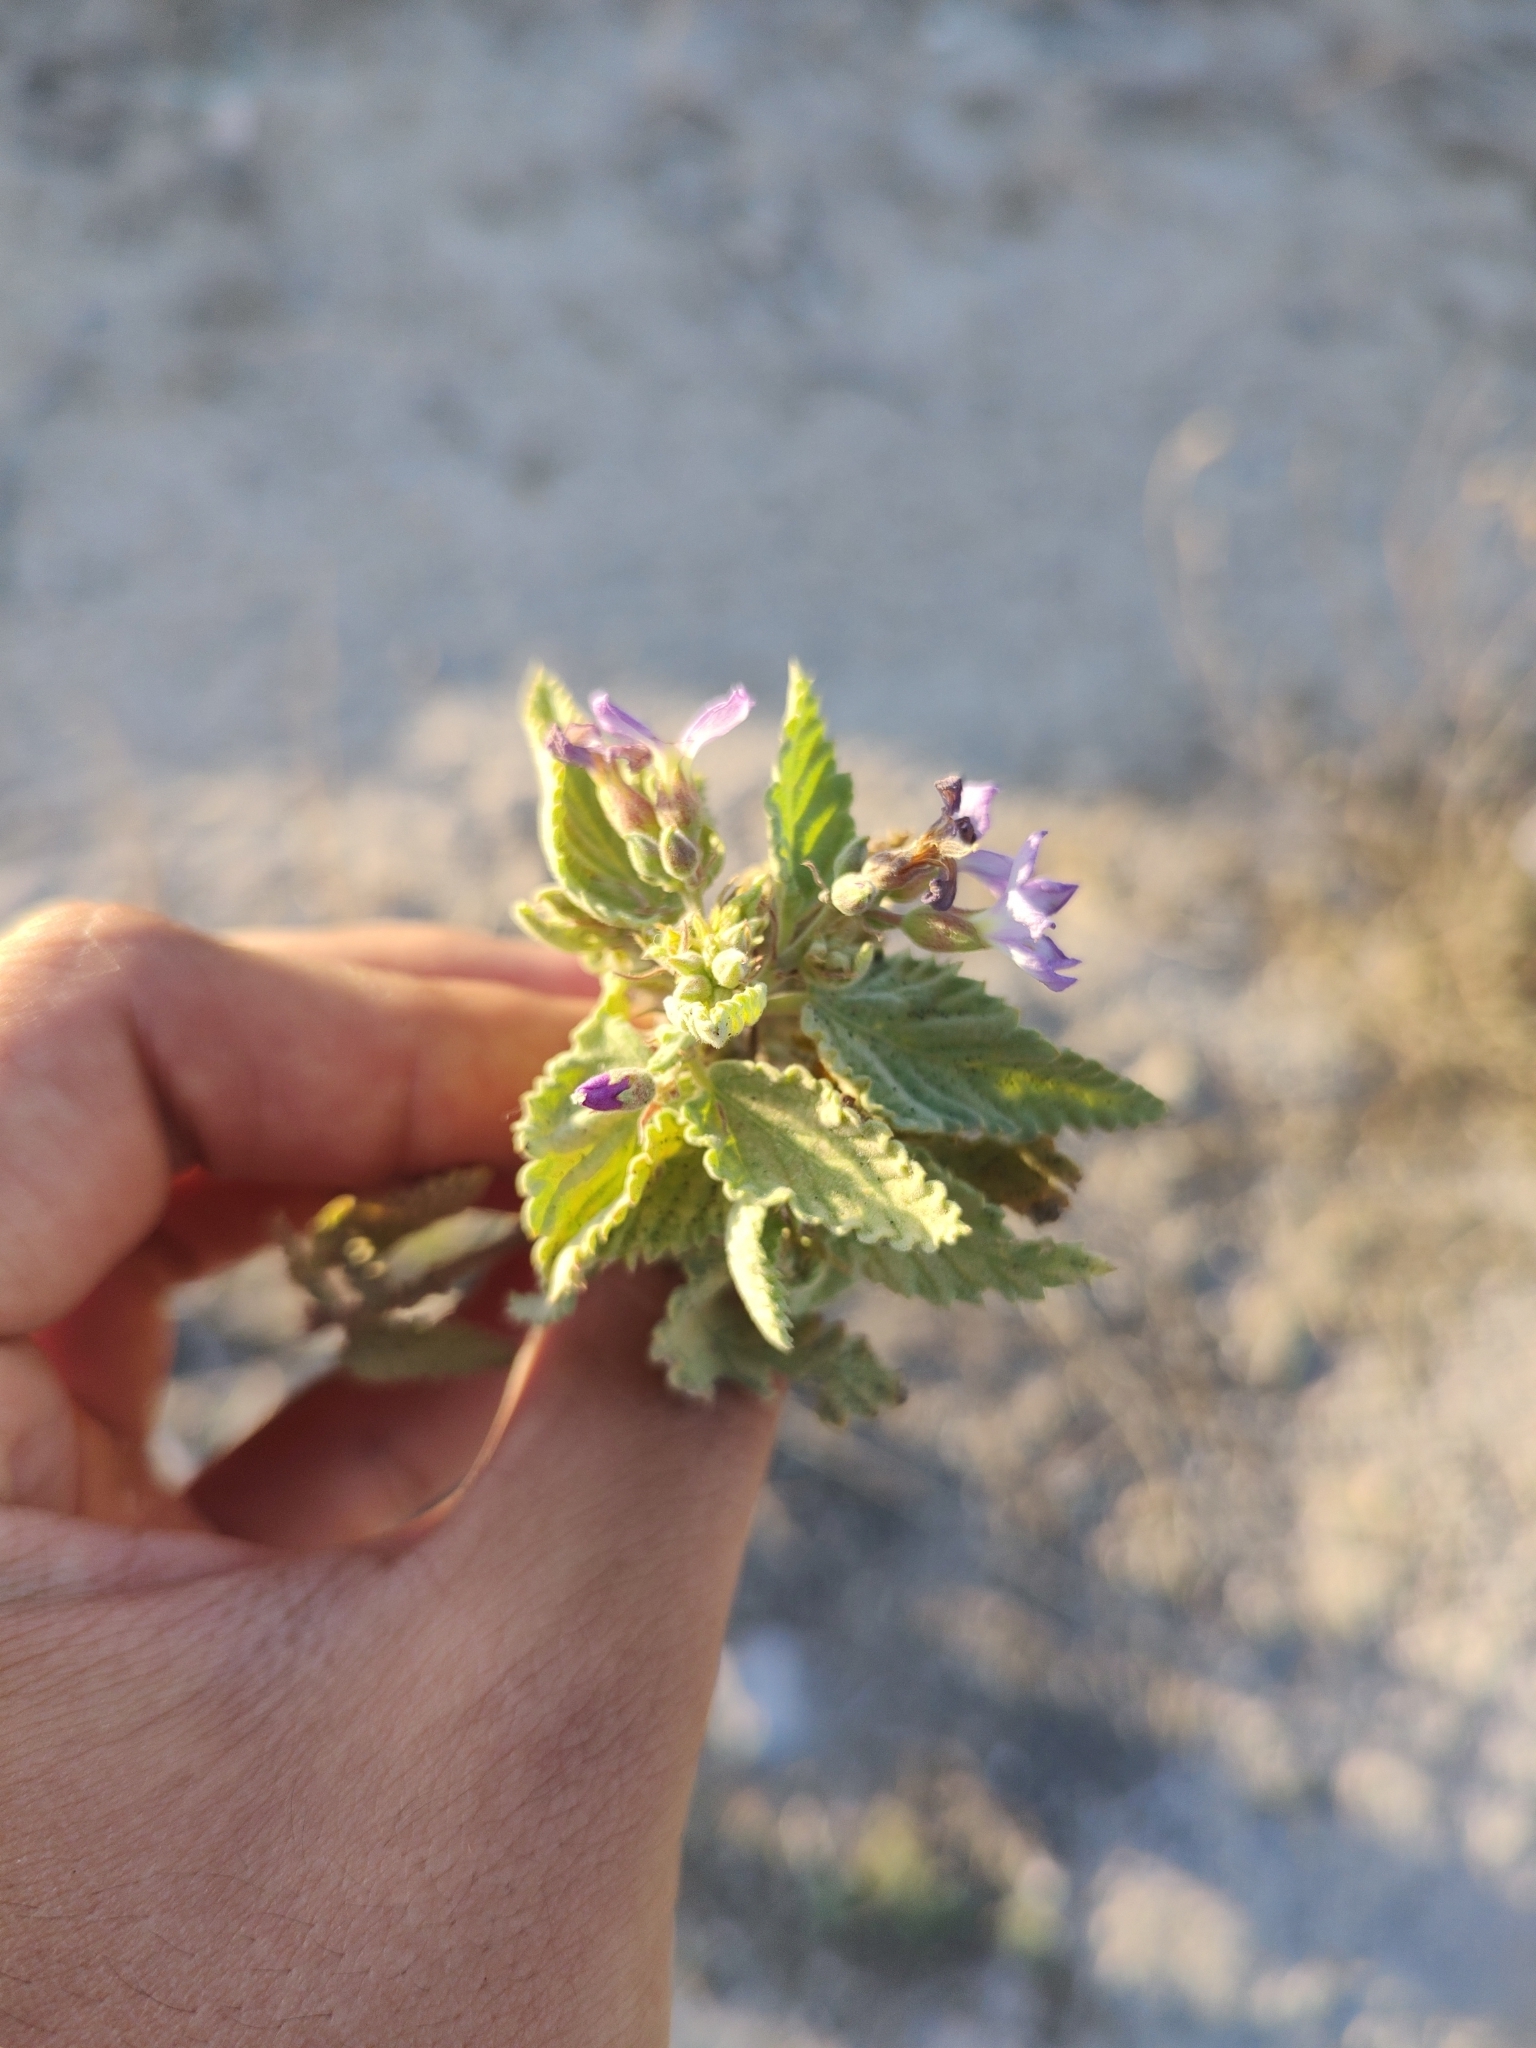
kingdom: Plantae
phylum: Tracheophyta
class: Magnoliopsida
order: Malvales
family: Malvaceae
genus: Melochia
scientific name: Melochia tomentosa
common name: Black torch
